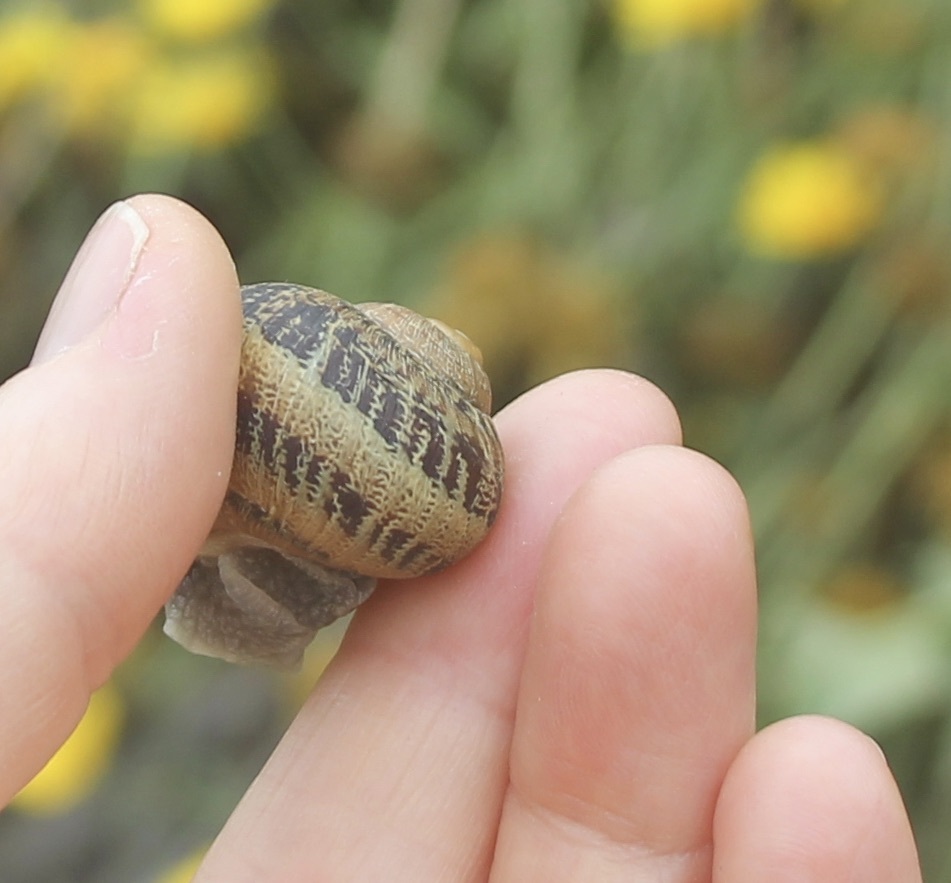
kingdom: Animalia
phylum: Mollusca
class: Gastropoda
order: Stylommatophora
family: Helicidae
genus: Cornu
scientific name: Cornu aspersum
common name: Brown garden snail
